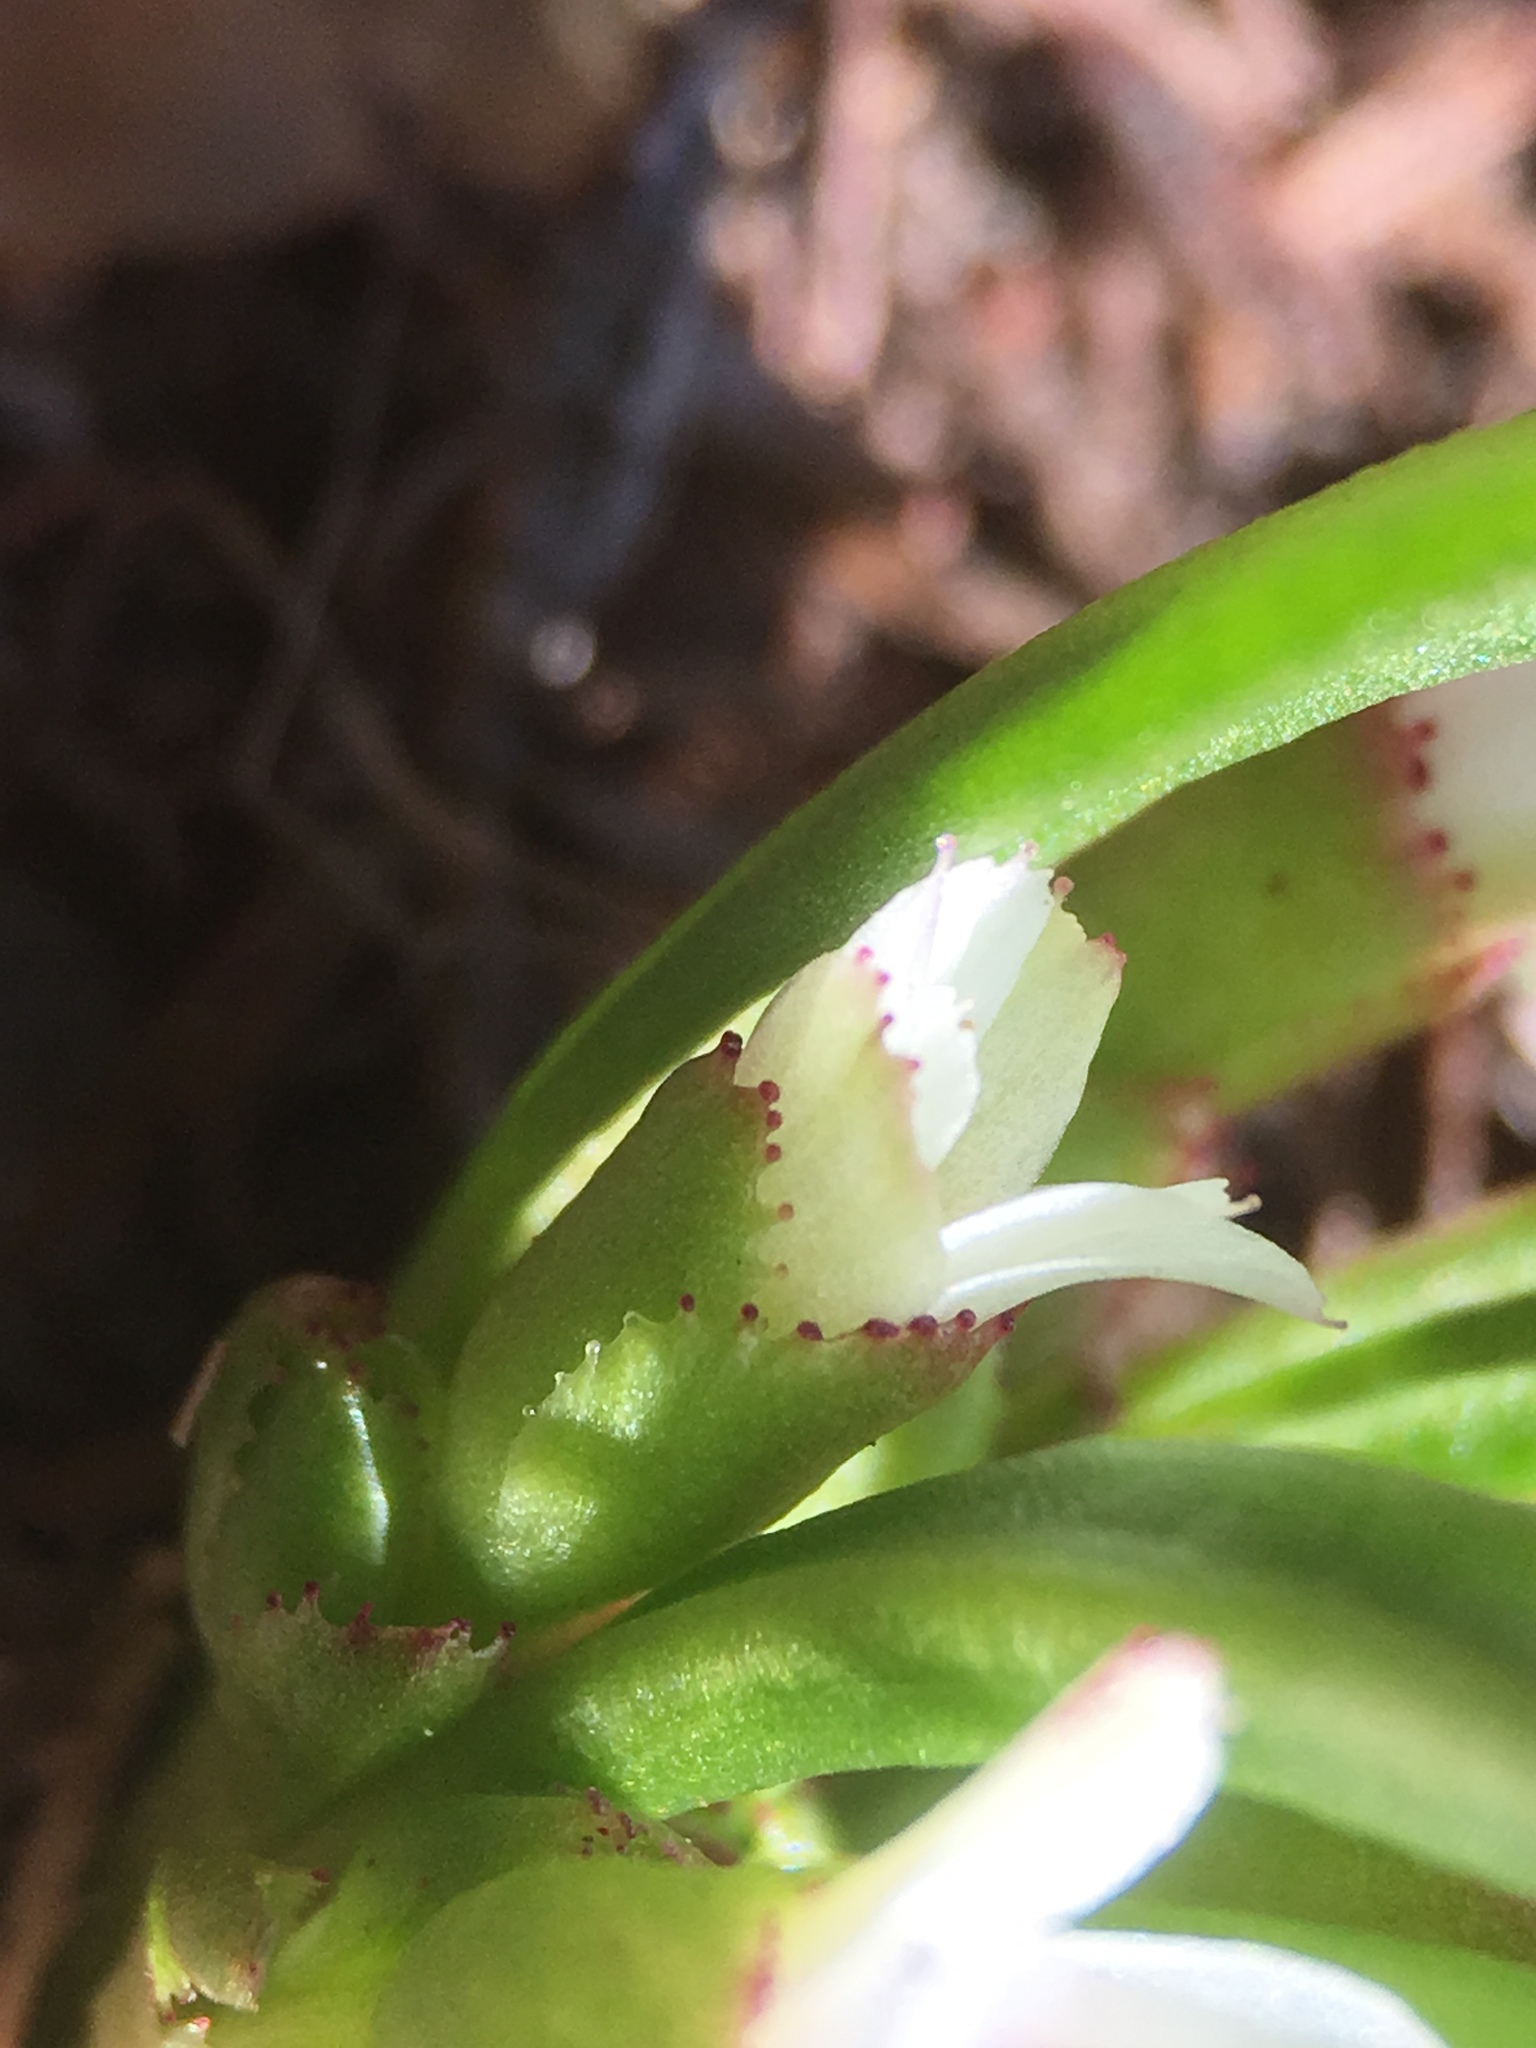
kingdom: Plantae
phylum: Tracheophyta
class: Magnoliopsida
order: Caryophyllales
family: Montiaceae
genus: Lewisia
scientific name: Lewisia pygmaea
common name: Alpine bitterroot
